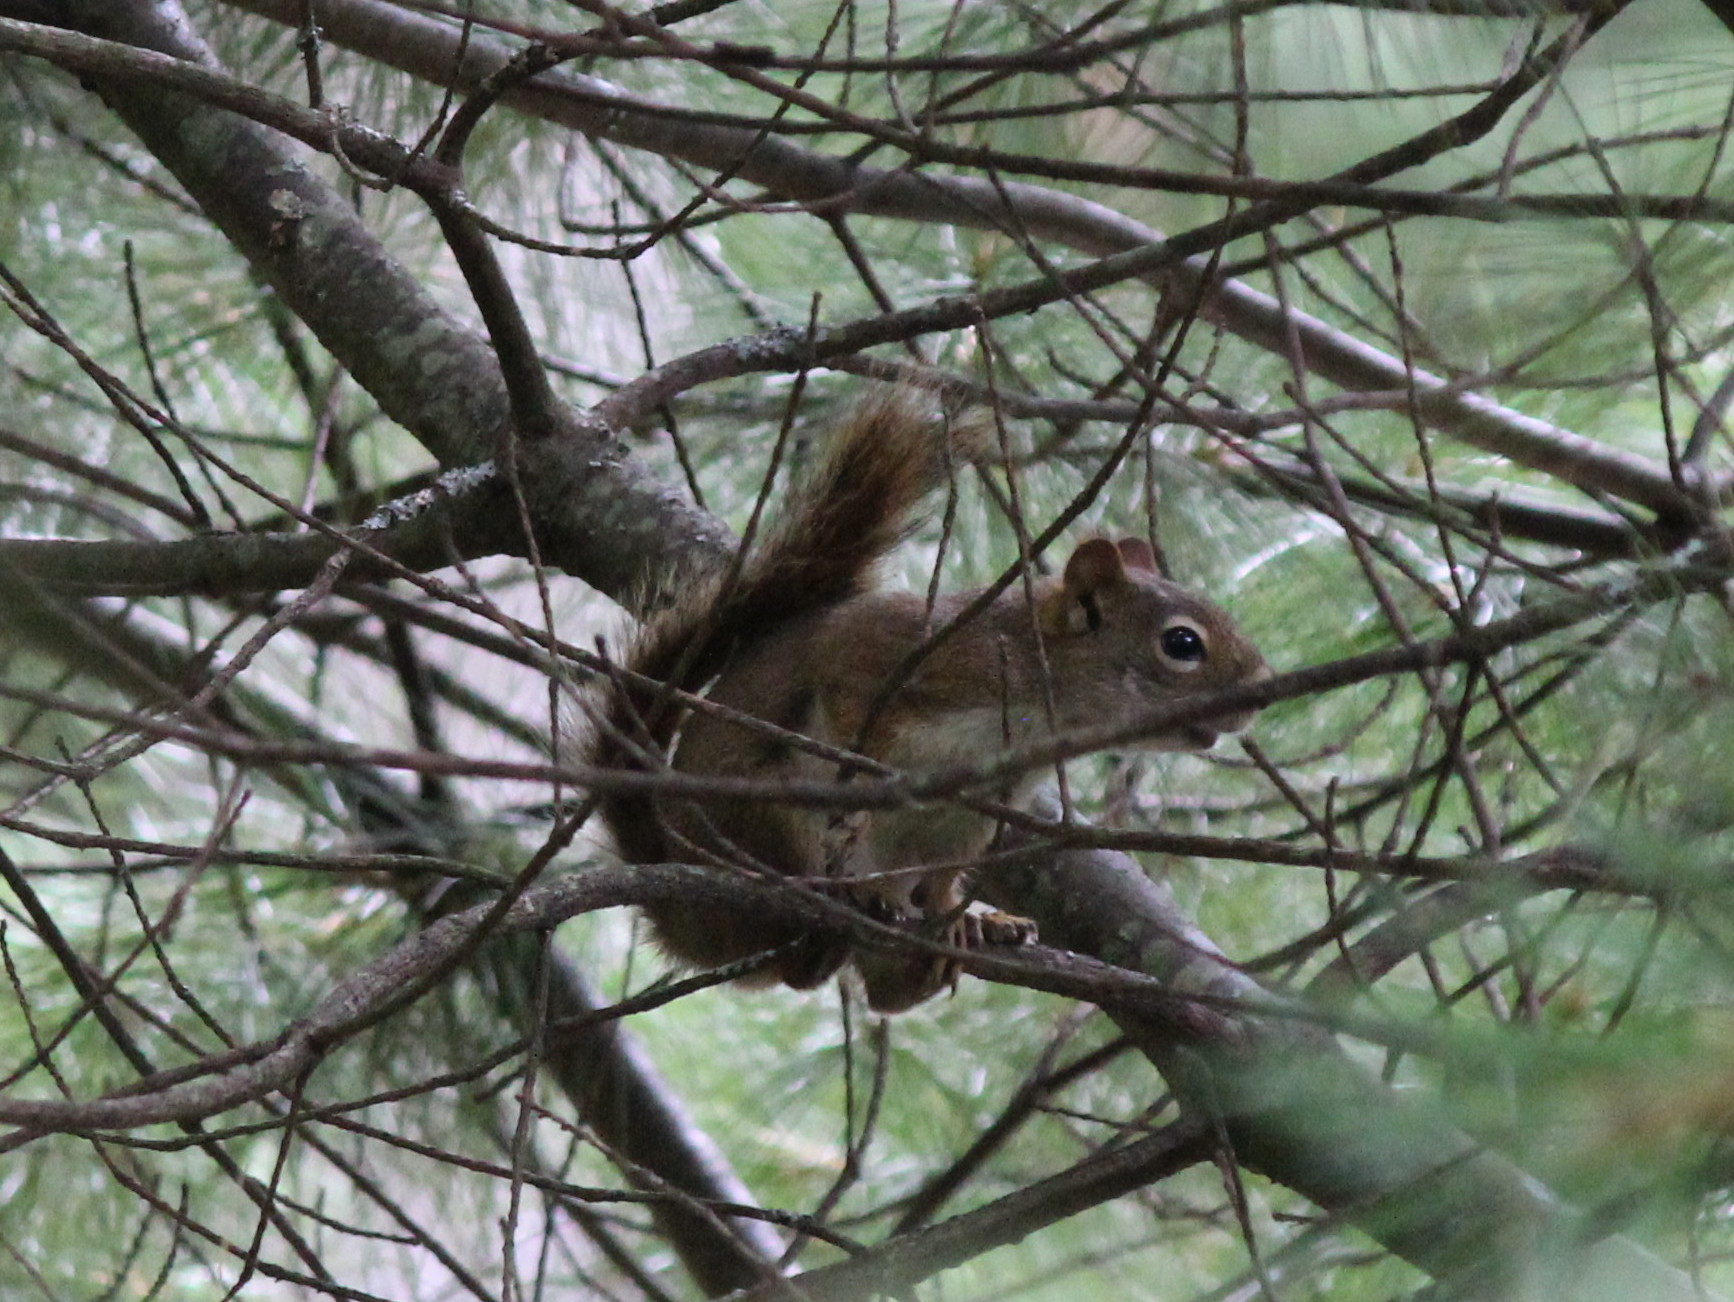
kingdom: Animalia
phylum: Chordata
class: Mammalia
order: Rodentia
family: Sciuridae
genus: Tamiasciurus
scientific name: Tamiasciurus hudsonicus
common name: Red squirrel
